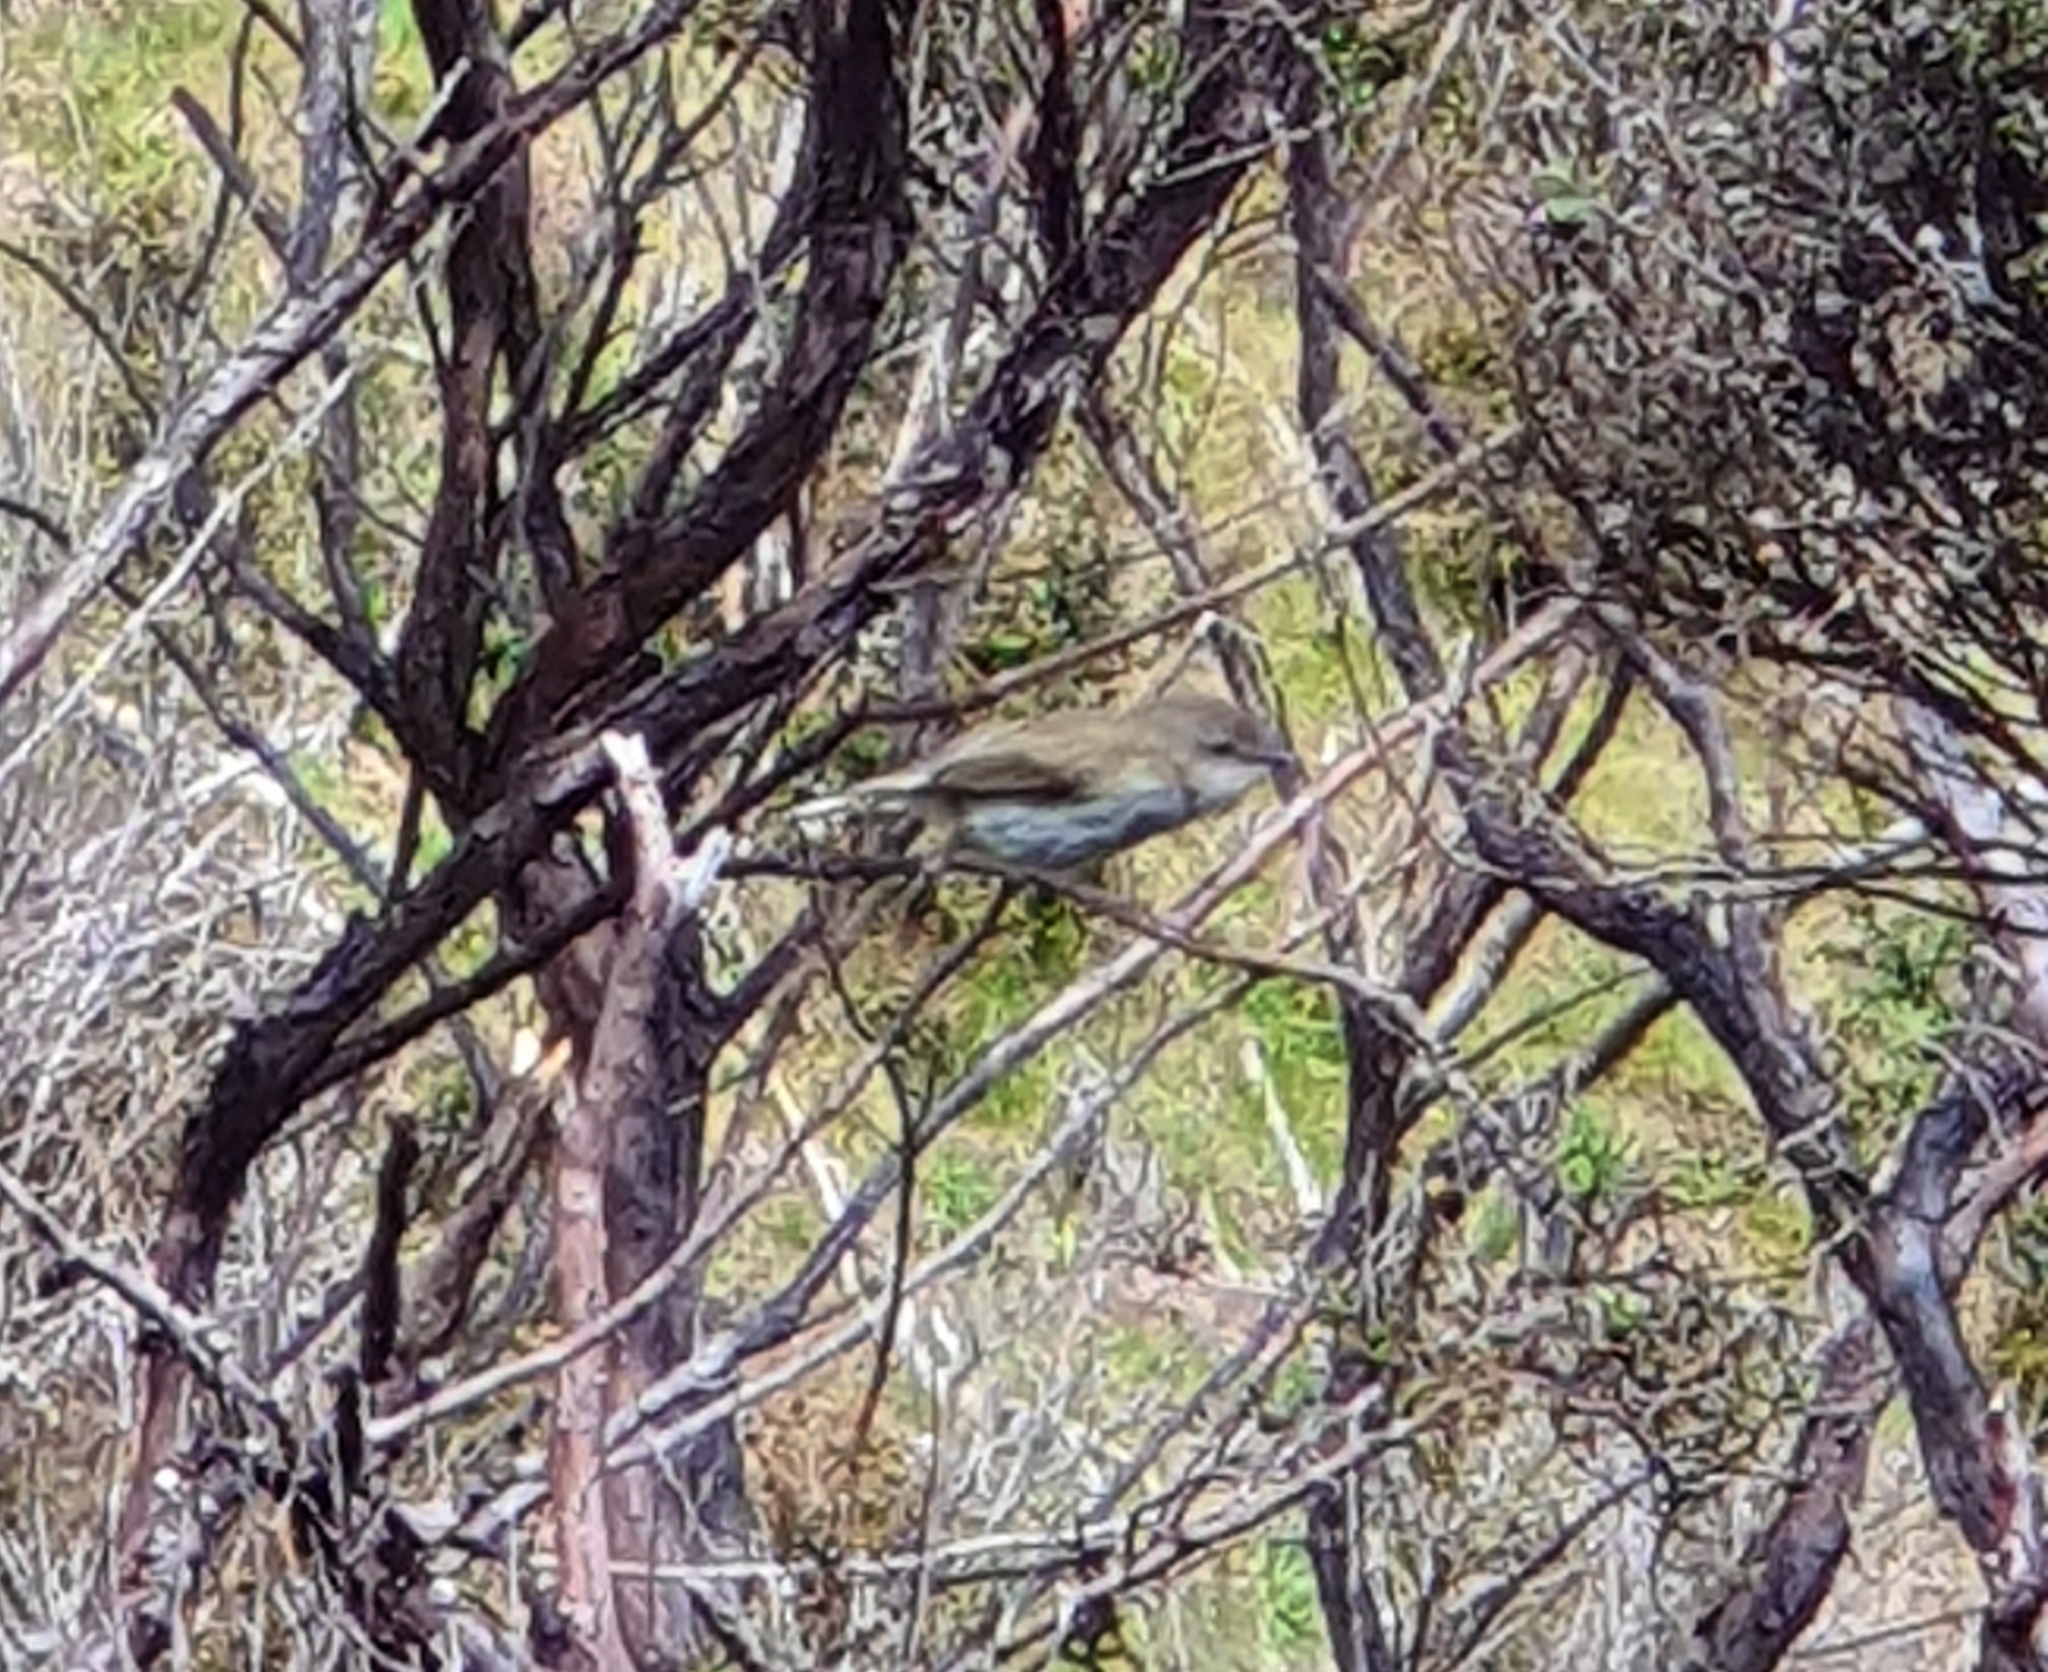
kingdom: Animalia
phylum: Chordata
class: Aves
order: Passeriformes
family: Acanthizidae
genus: Gerygone
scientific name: Gerygone igata
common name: Grey gerygone
